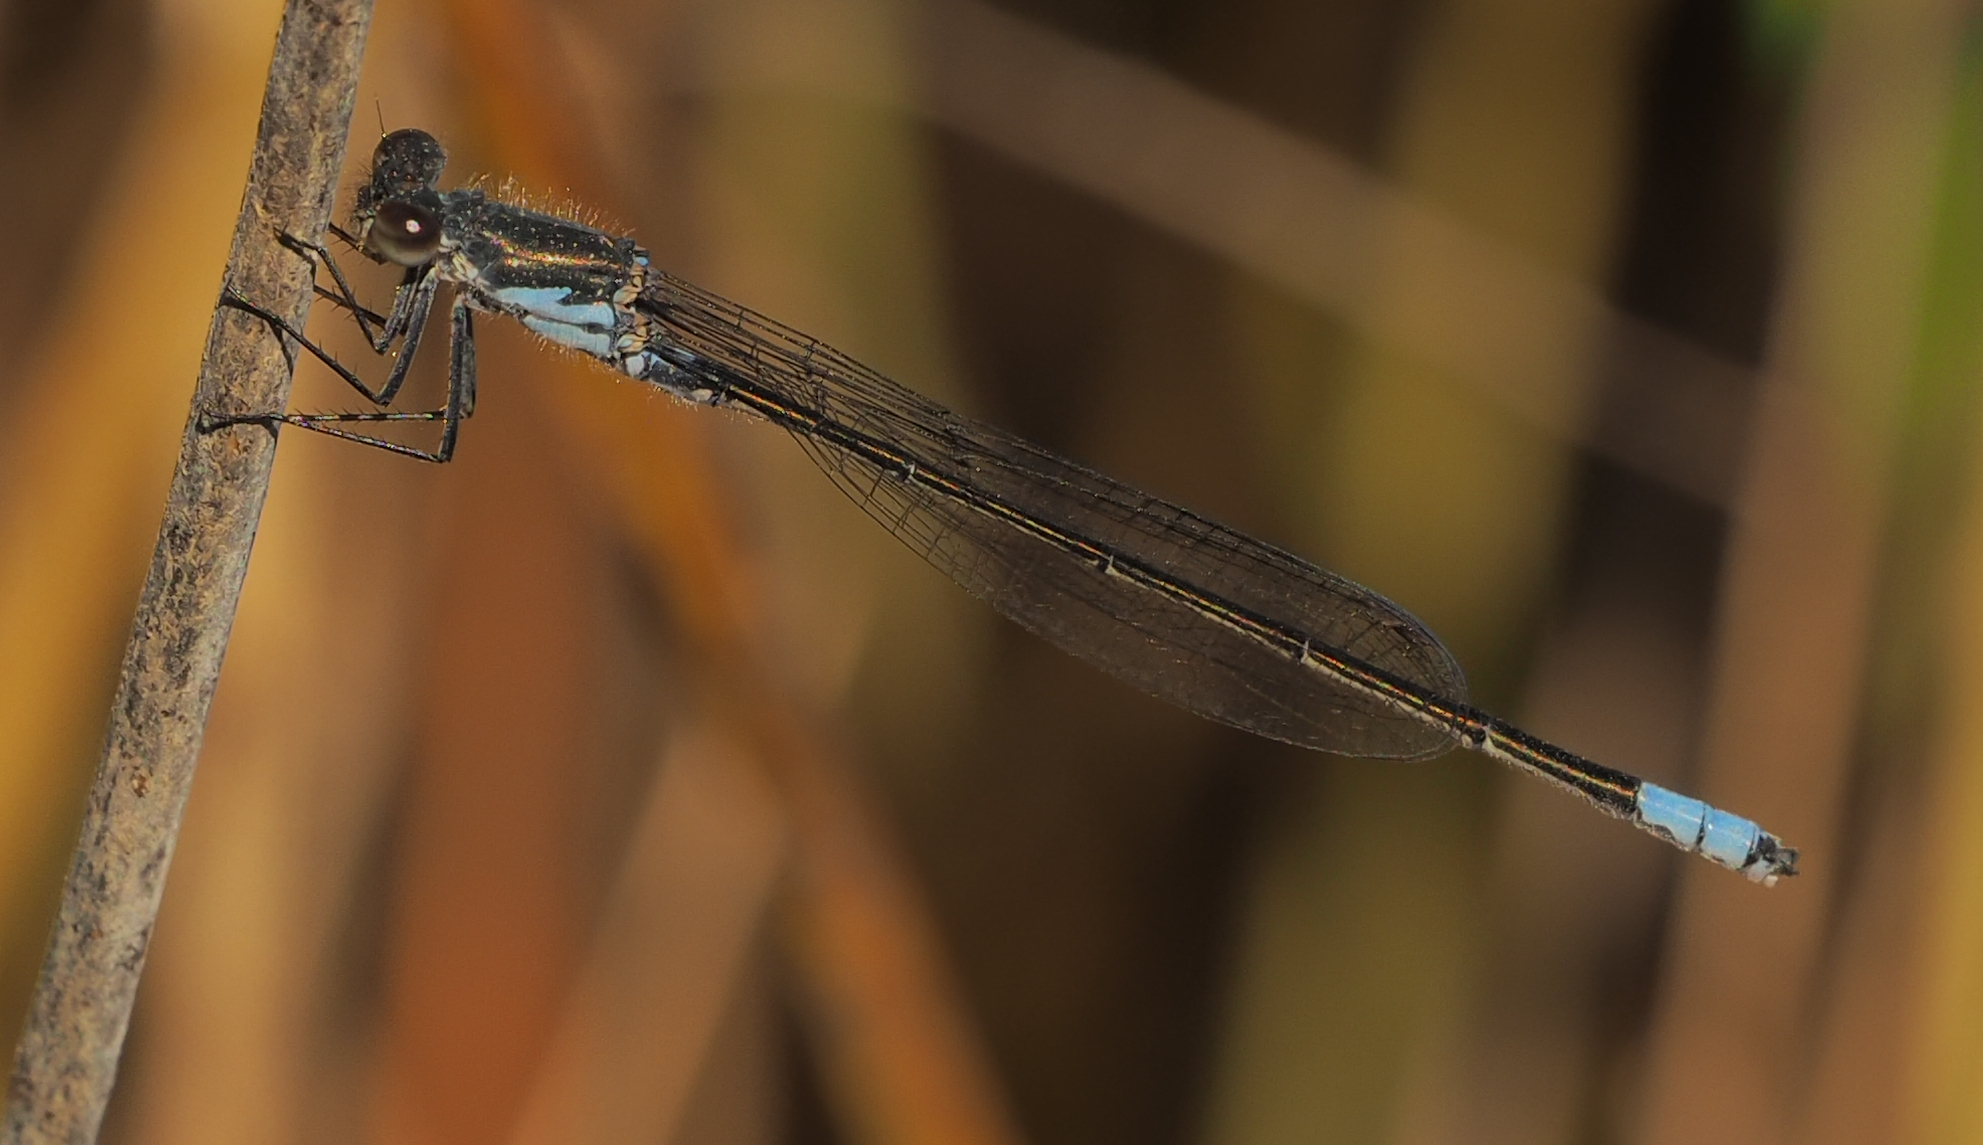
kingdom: Animalia
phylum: Arthropoda
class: Insecta
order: Odonata
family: Coenagrionidae
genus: Pseudagrion
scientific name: Pseudagrion deningi
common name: Dening's sprite
